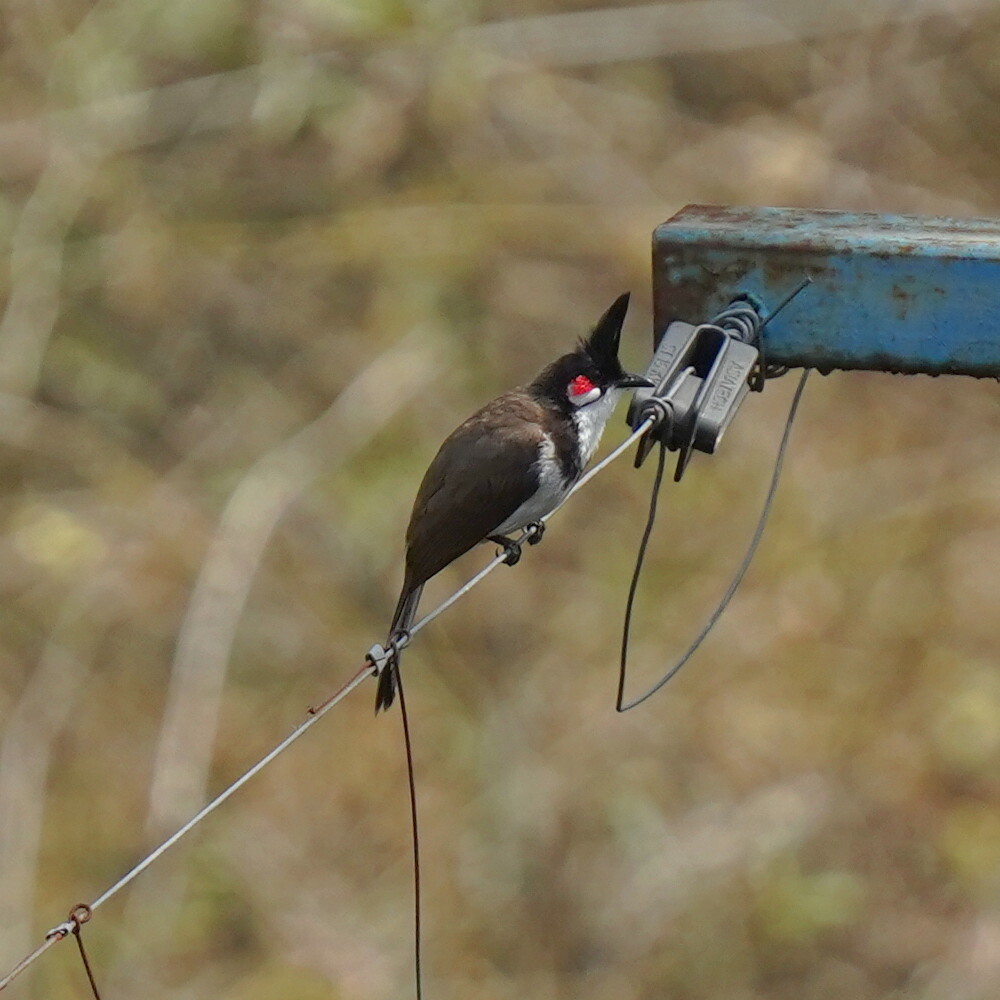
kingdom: Animalia
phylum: Chordata
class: Aves
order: Passeriformes
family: Pycnonotidae
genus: Pycnonotus
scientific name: Pycnonotus jocosus
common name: Red-whiskered bulbul
